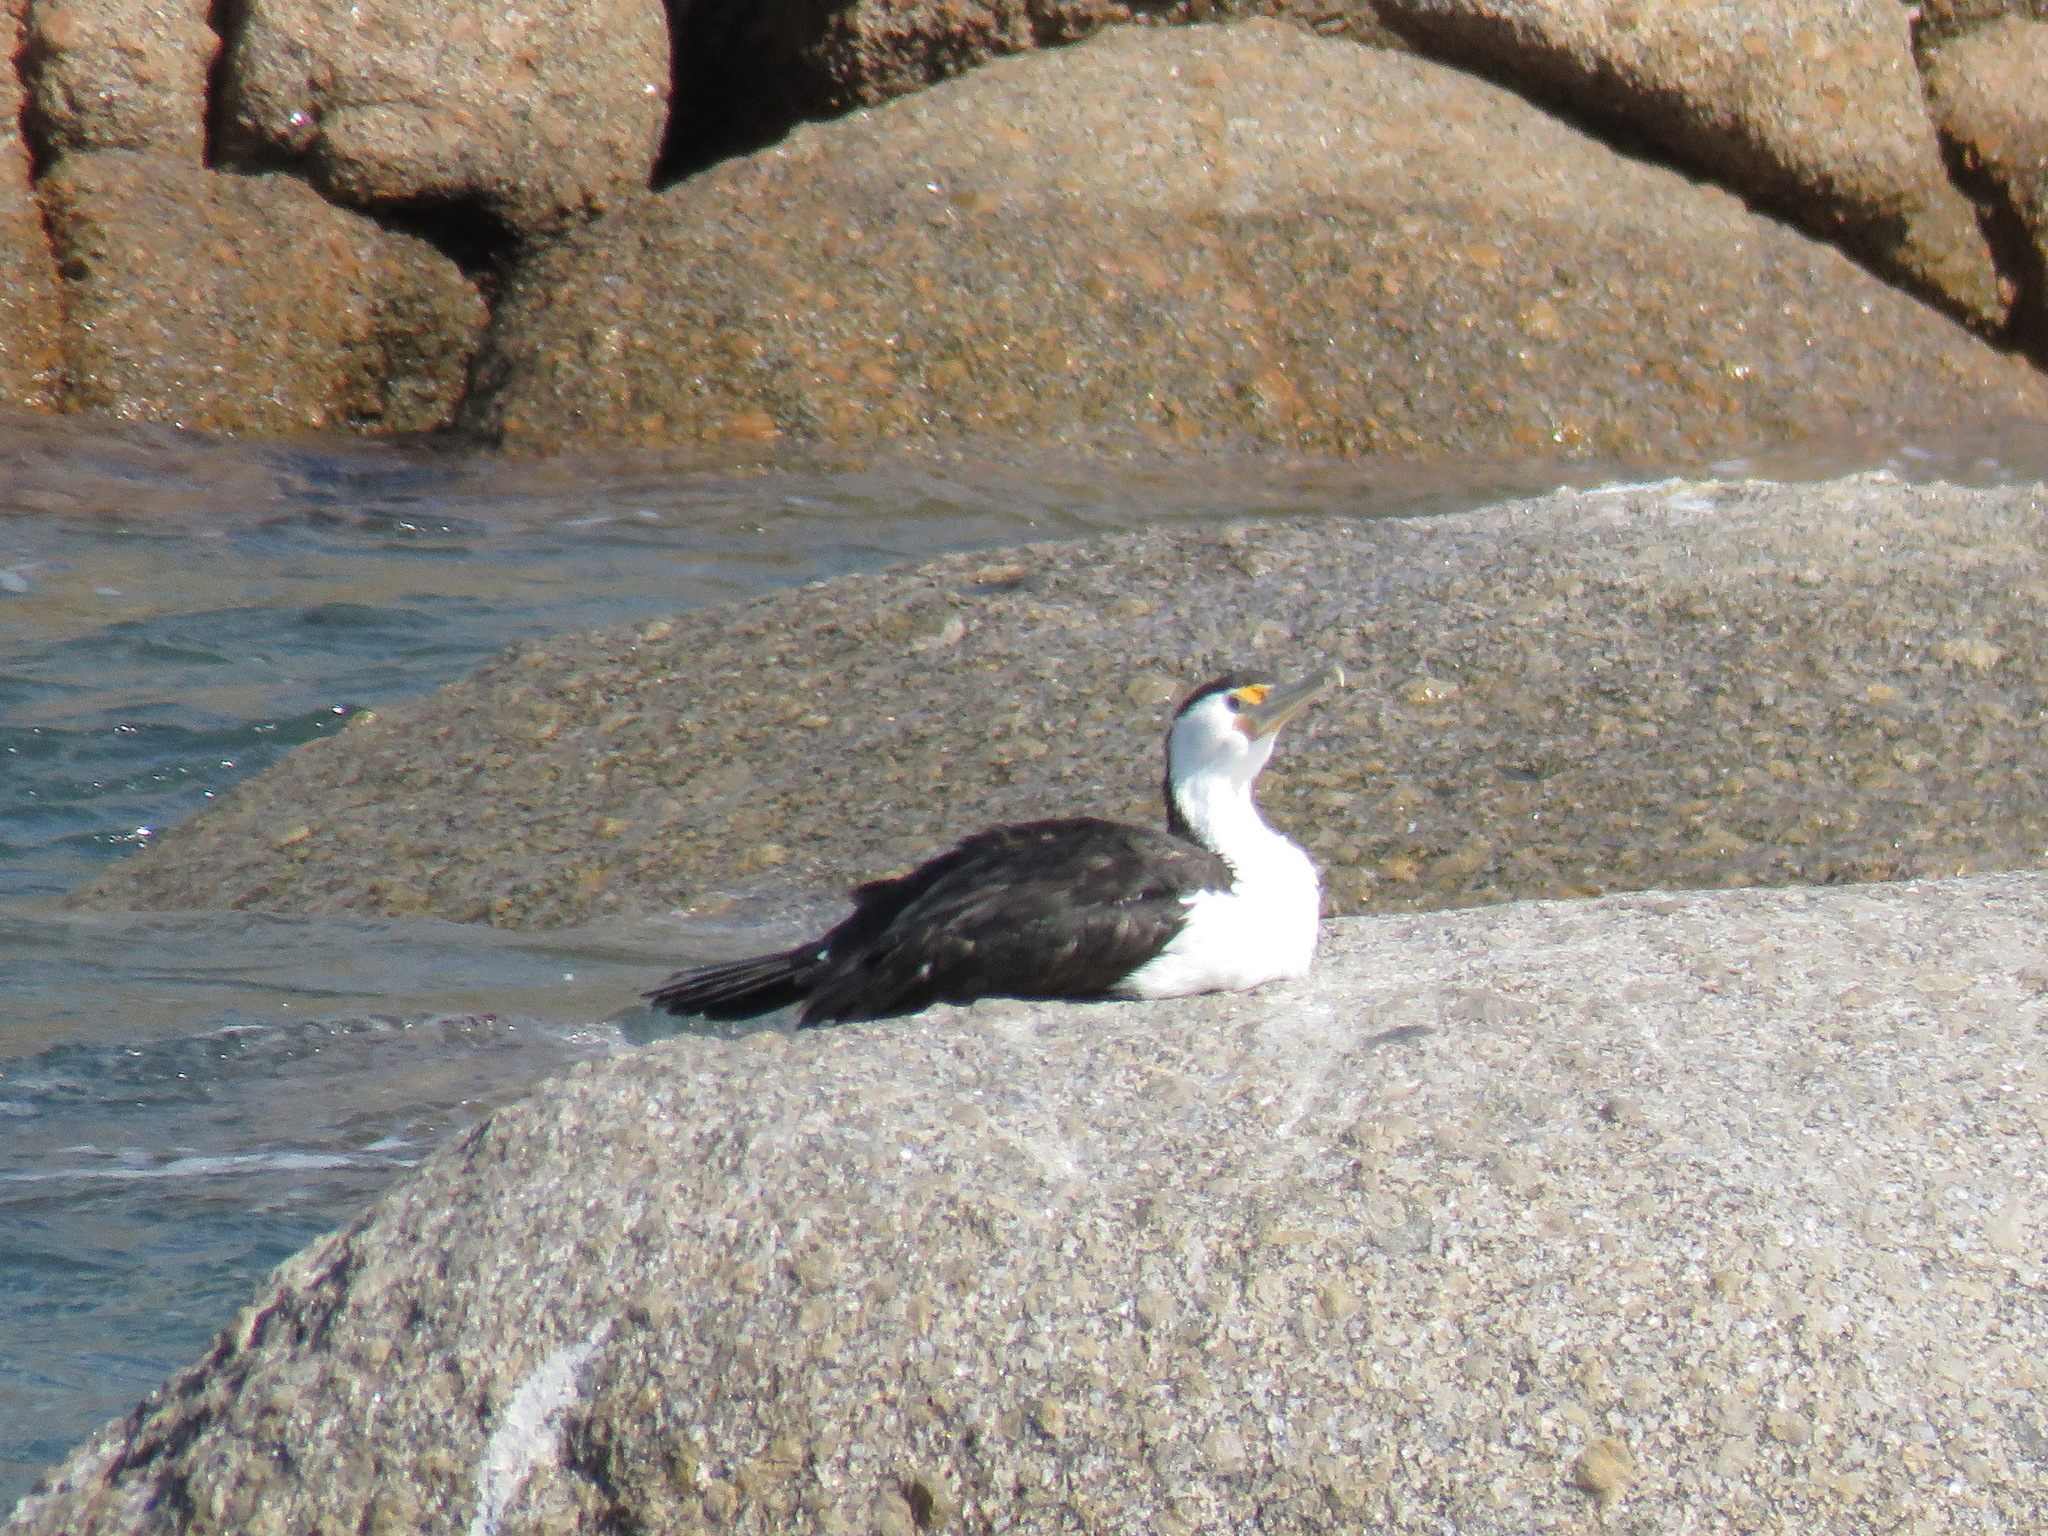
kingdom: Animalia
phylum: Chordata
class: Aves
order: Suliformes
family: Phalacrocoracidae
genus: Phalacrocorax
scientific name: Phalacrocorax varius
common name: Pied cormorant
